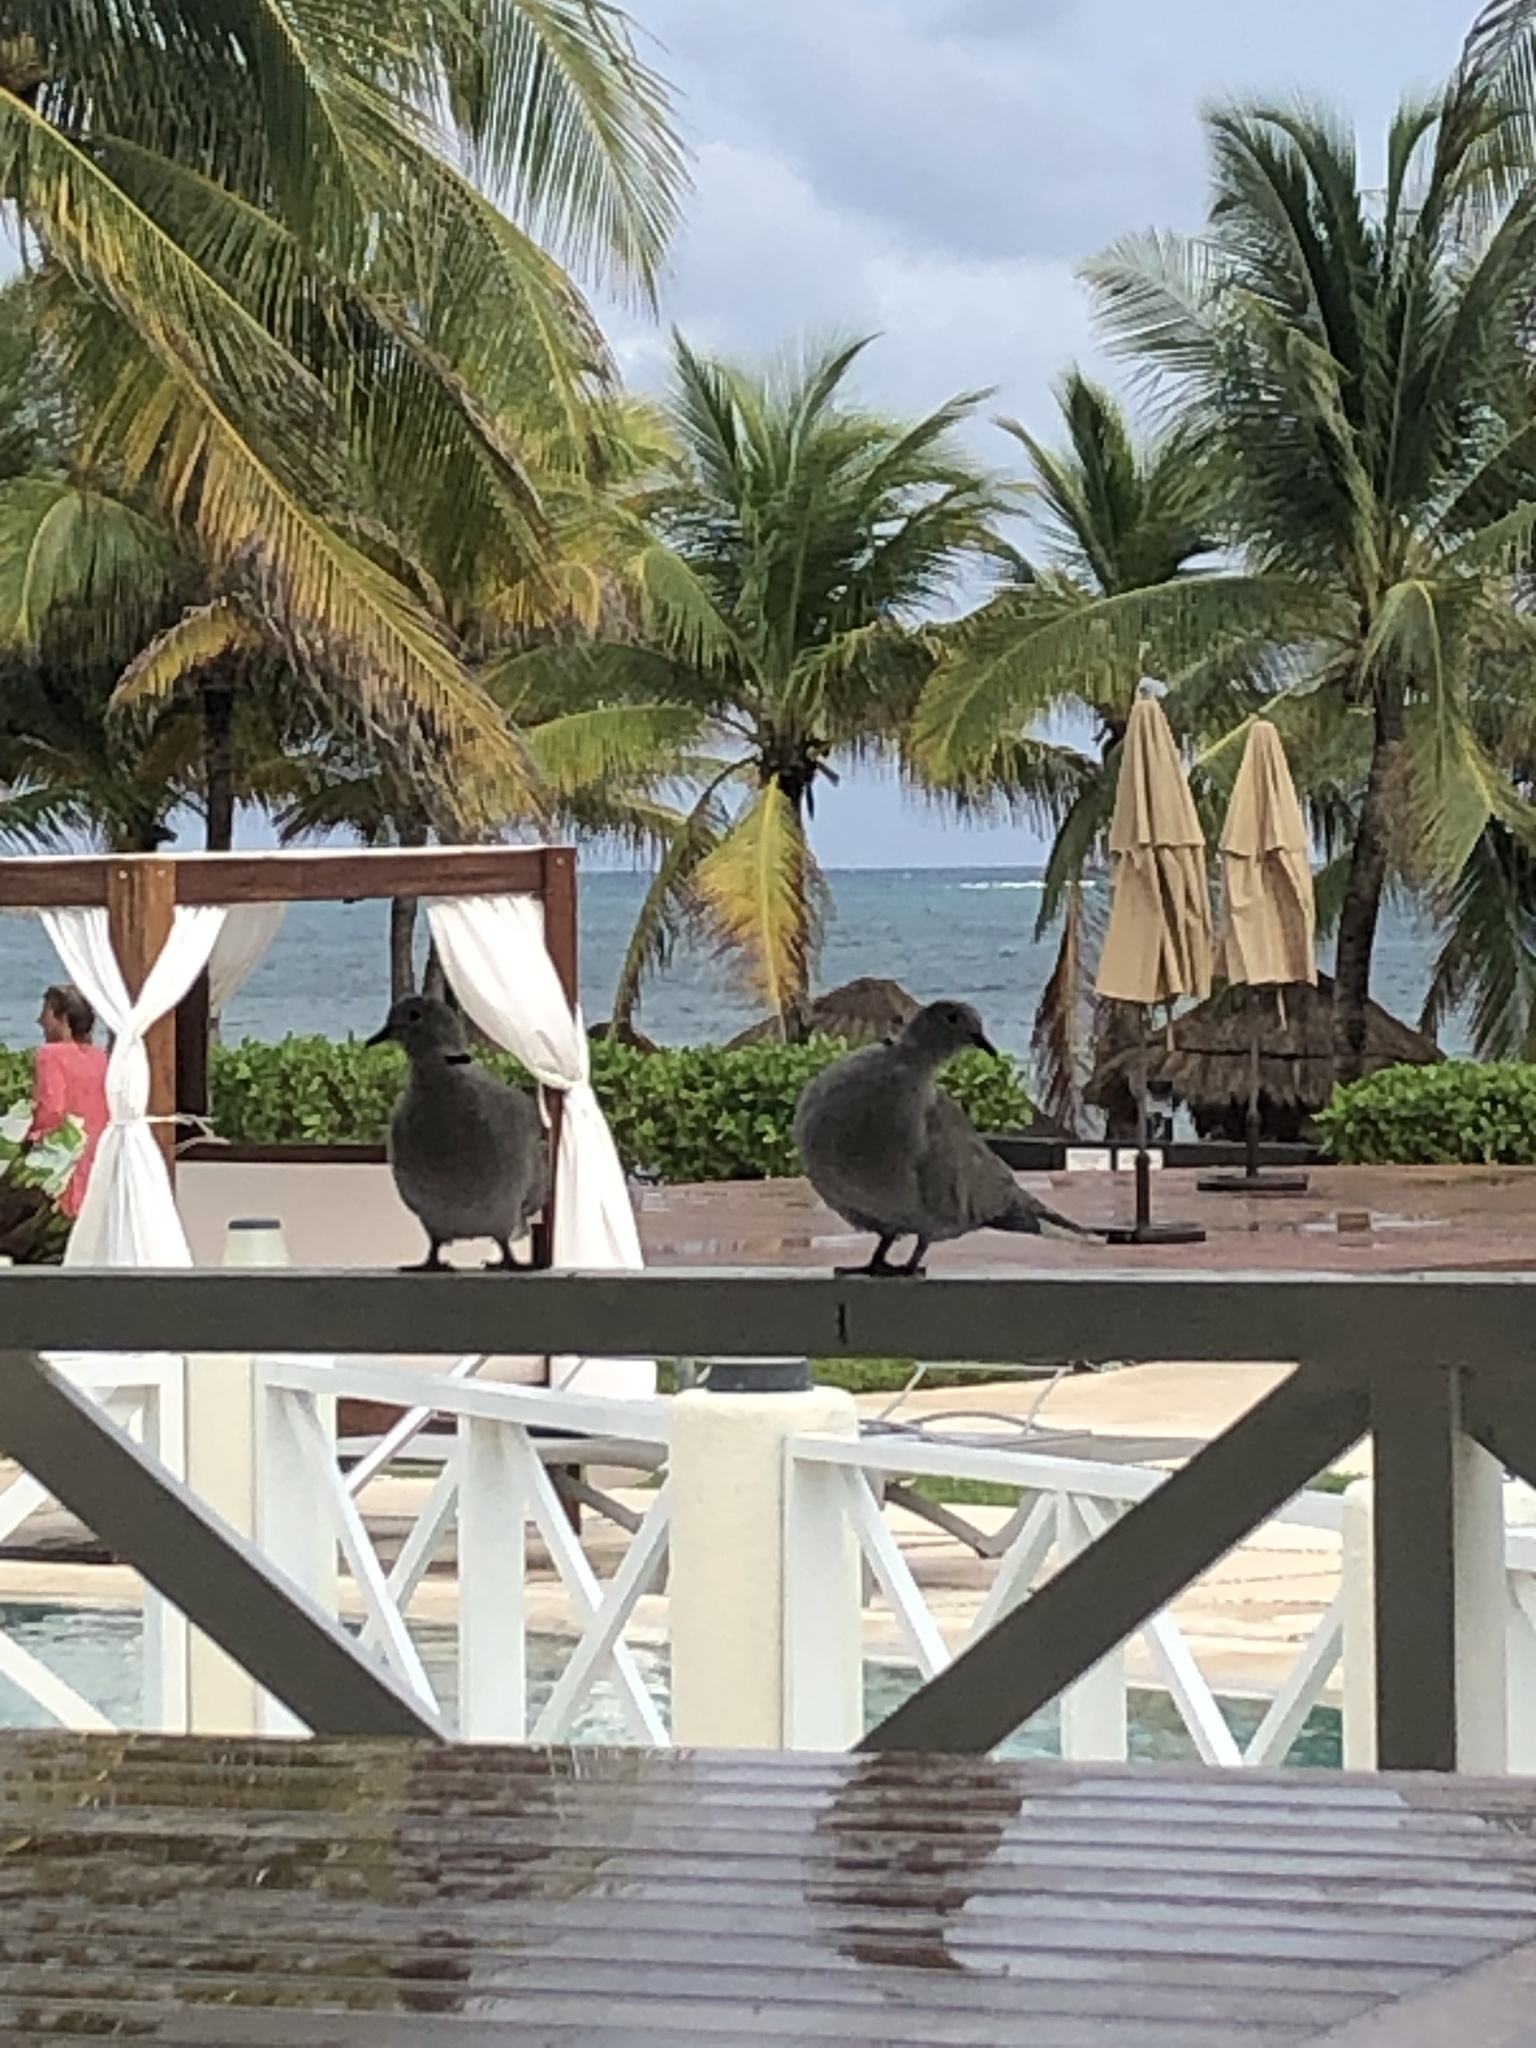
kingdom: Animalia
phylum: Chordata
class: Aves
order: Columbiformes
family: Columbidae
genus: Streptopelia
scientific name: Streptopelia decaocto
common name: Eurasian collared dove
